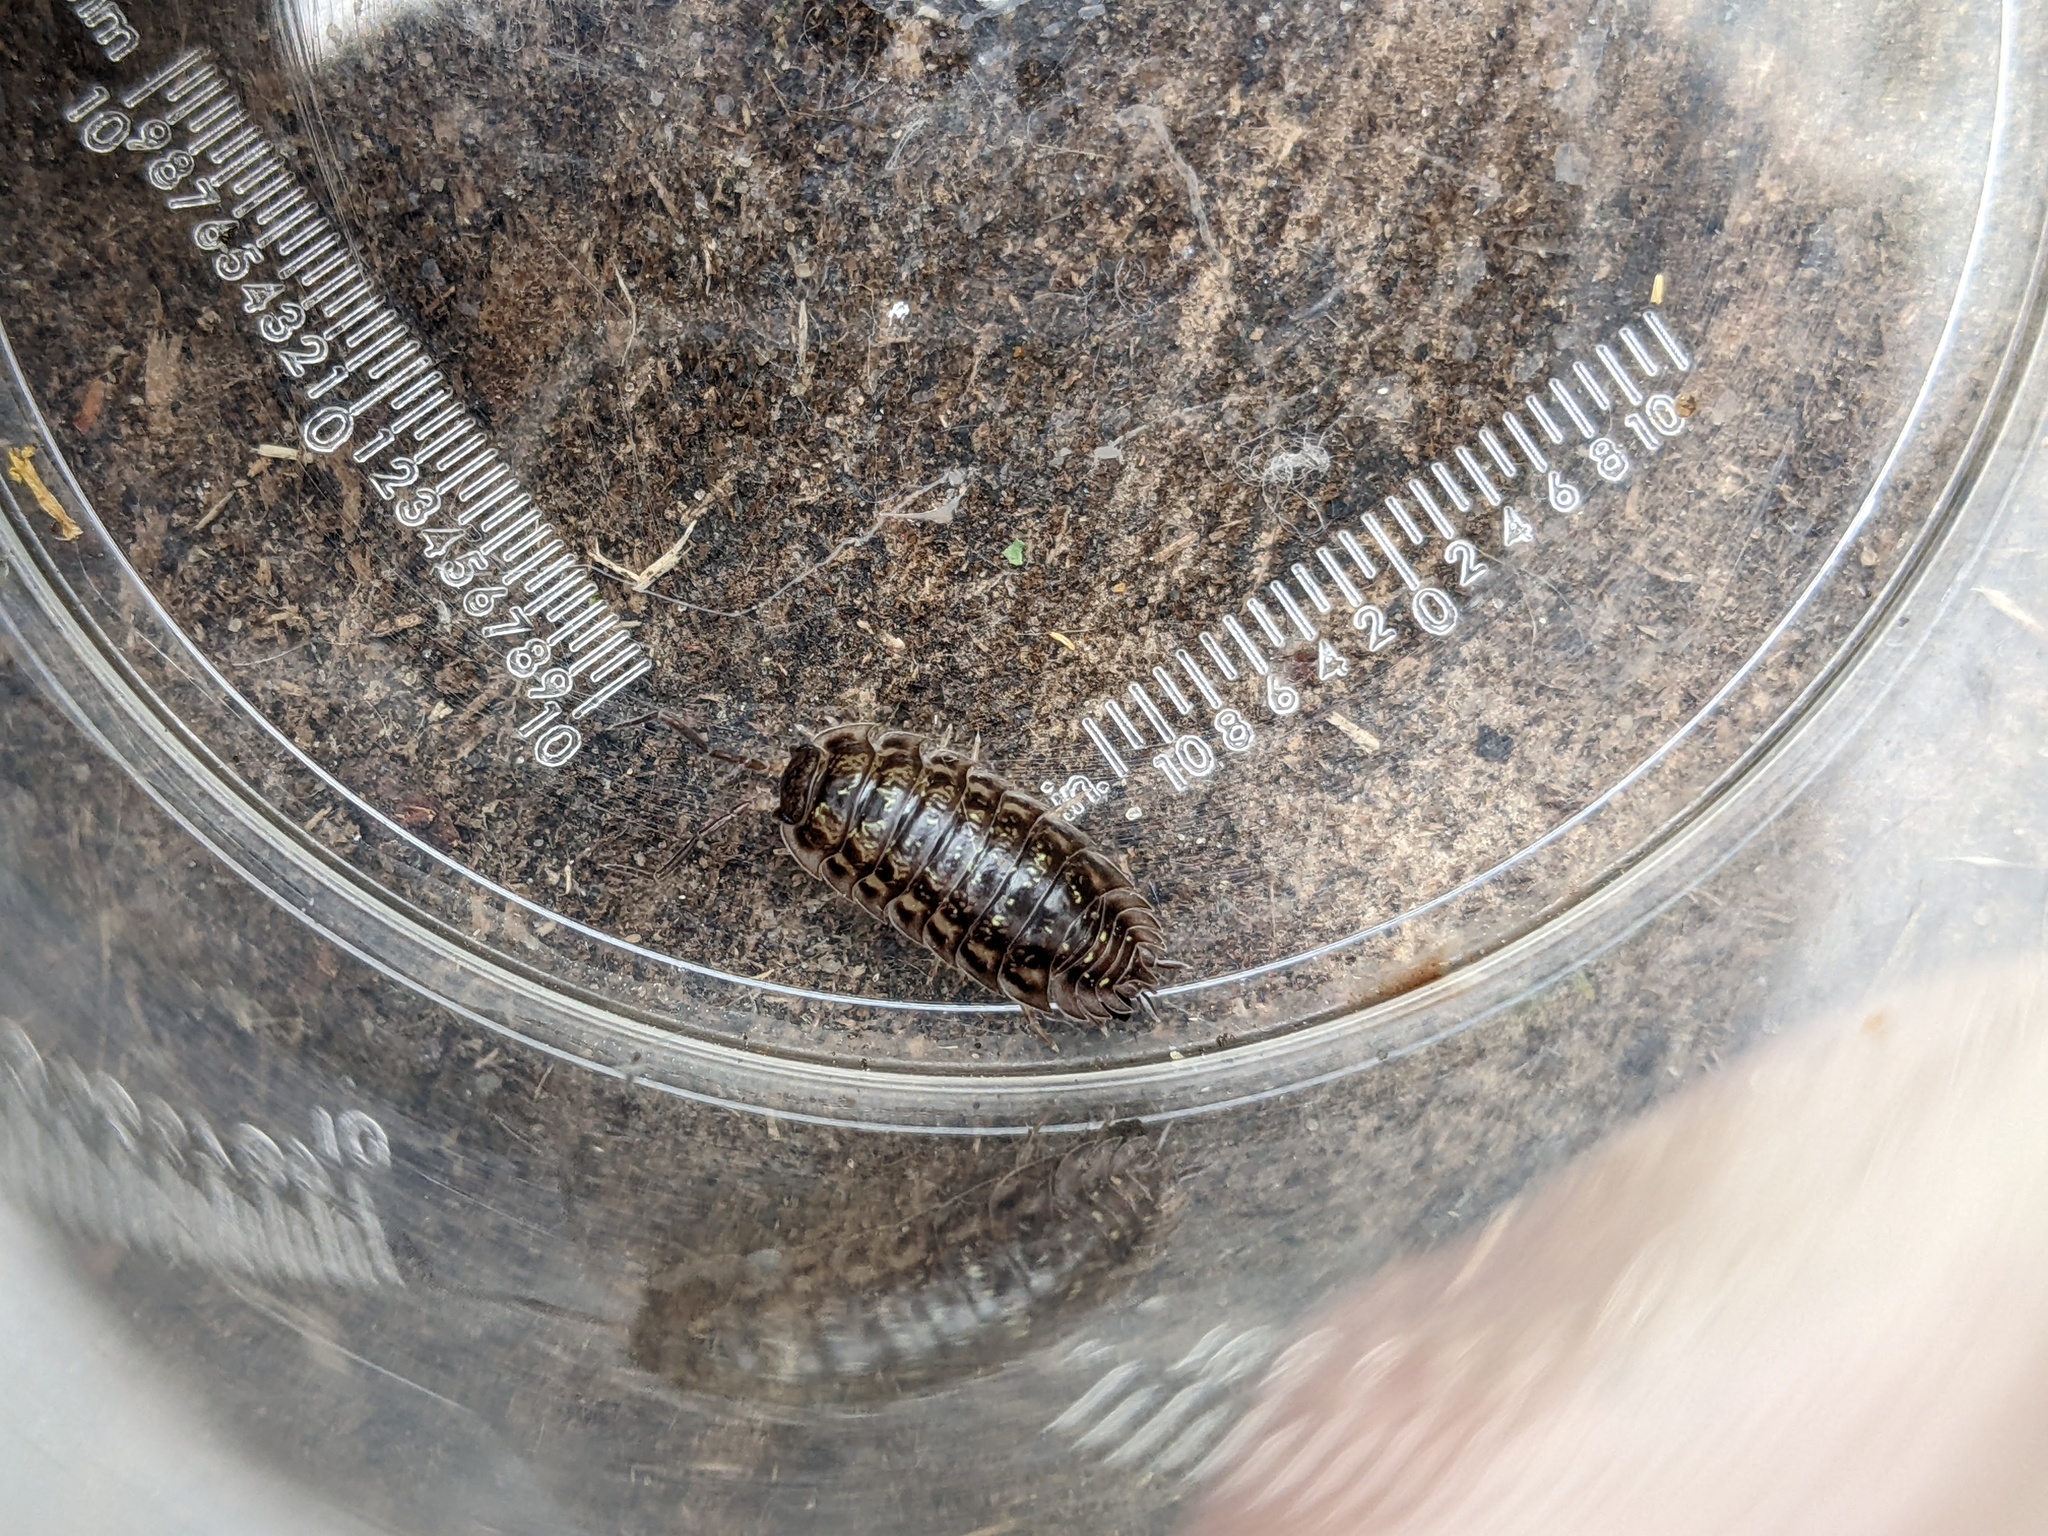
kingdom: Animalia
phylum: Arthropoda
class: Malacostraca
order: Isopoda
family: Oniscidae
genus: Oniscus
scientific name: Oniscus asellus
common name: Common shiny woodlouse
